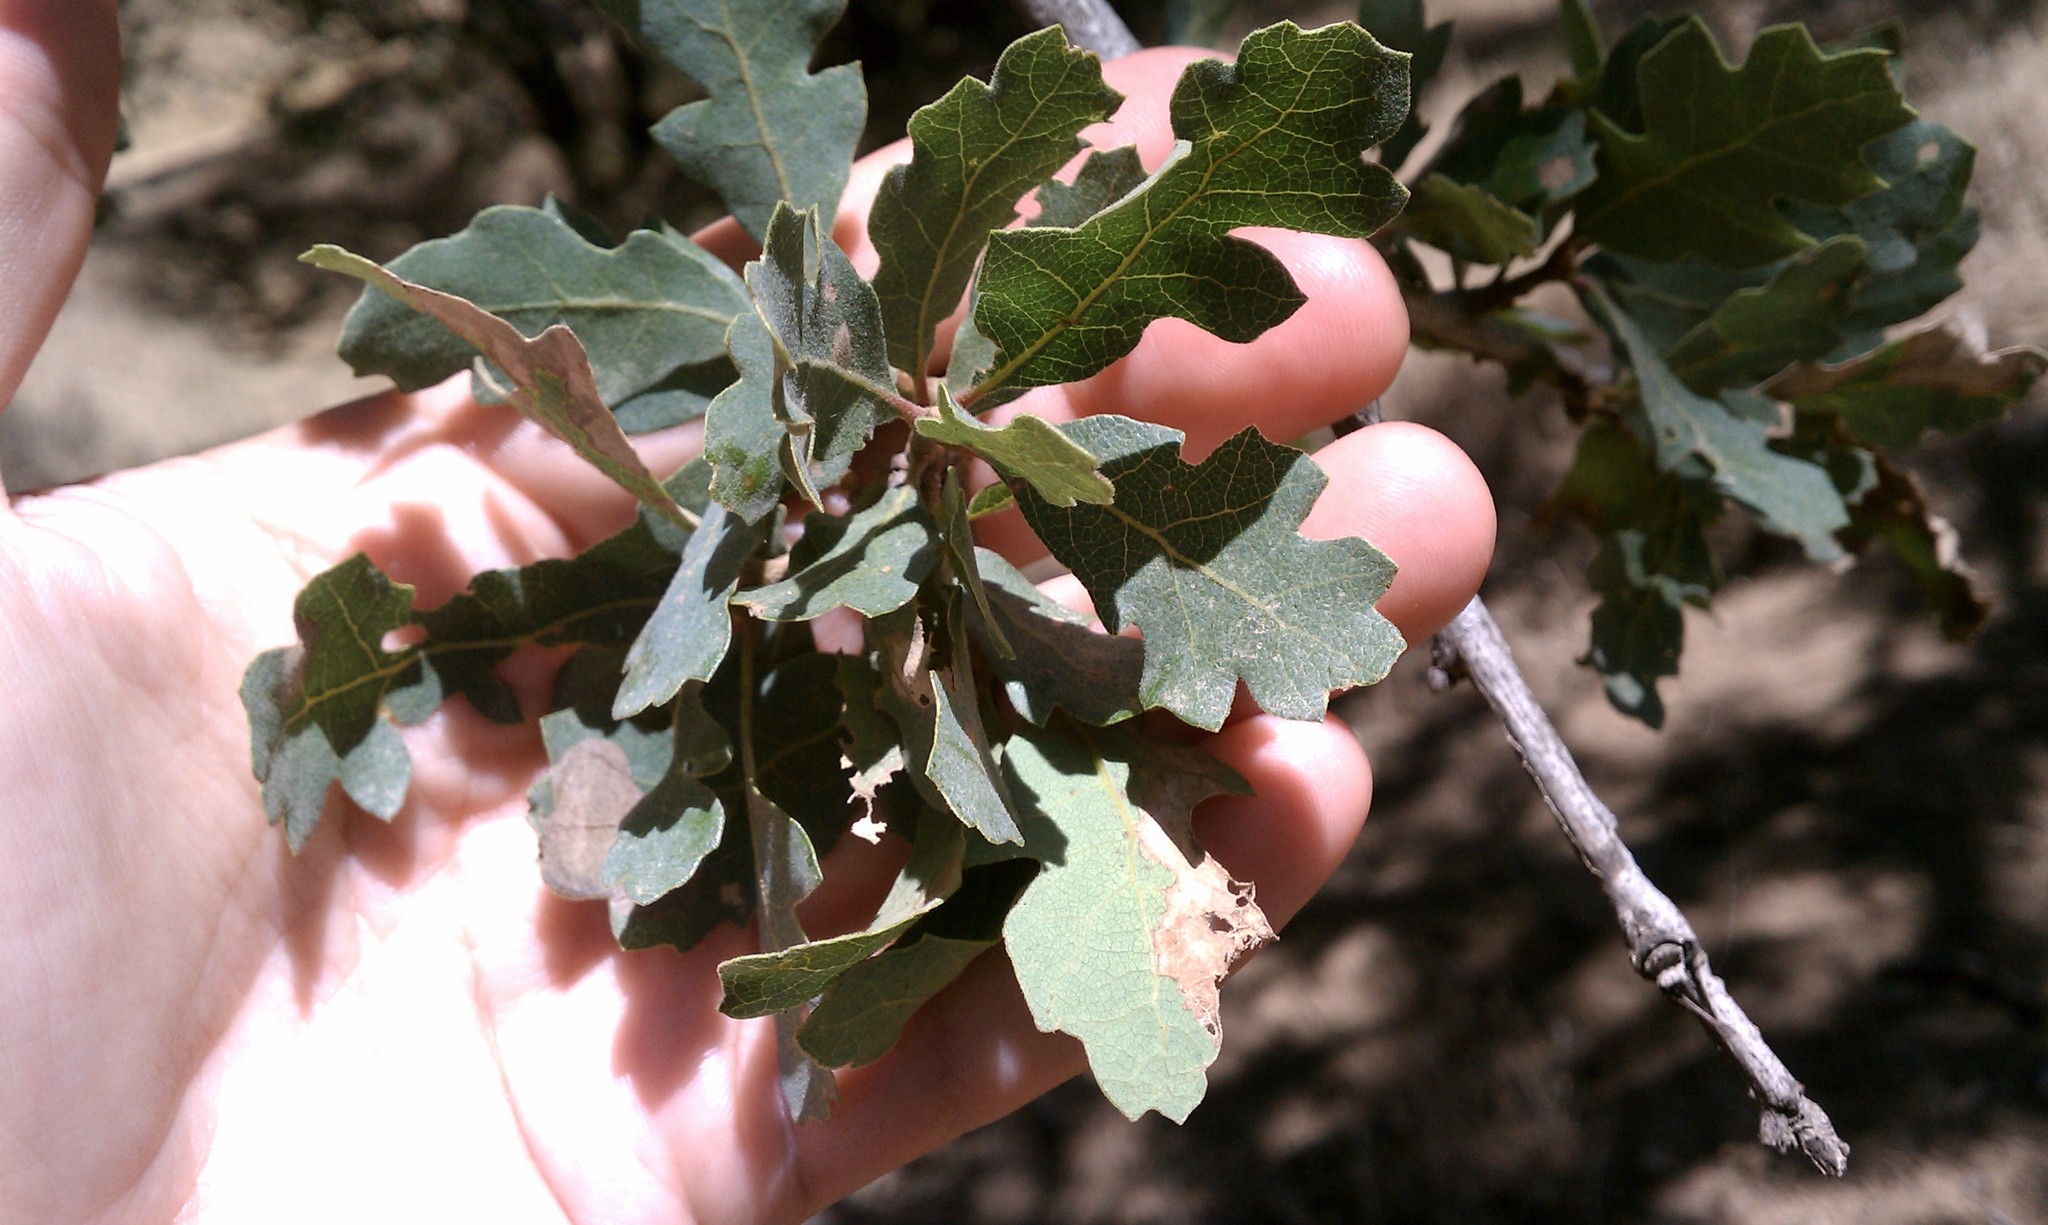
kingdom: Plantae
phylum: Tracheophyta
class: Magnoliopsida
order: Fagales
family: Fagaceae
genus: Quercus
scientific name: Quercus douglasii
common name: Blue oak
